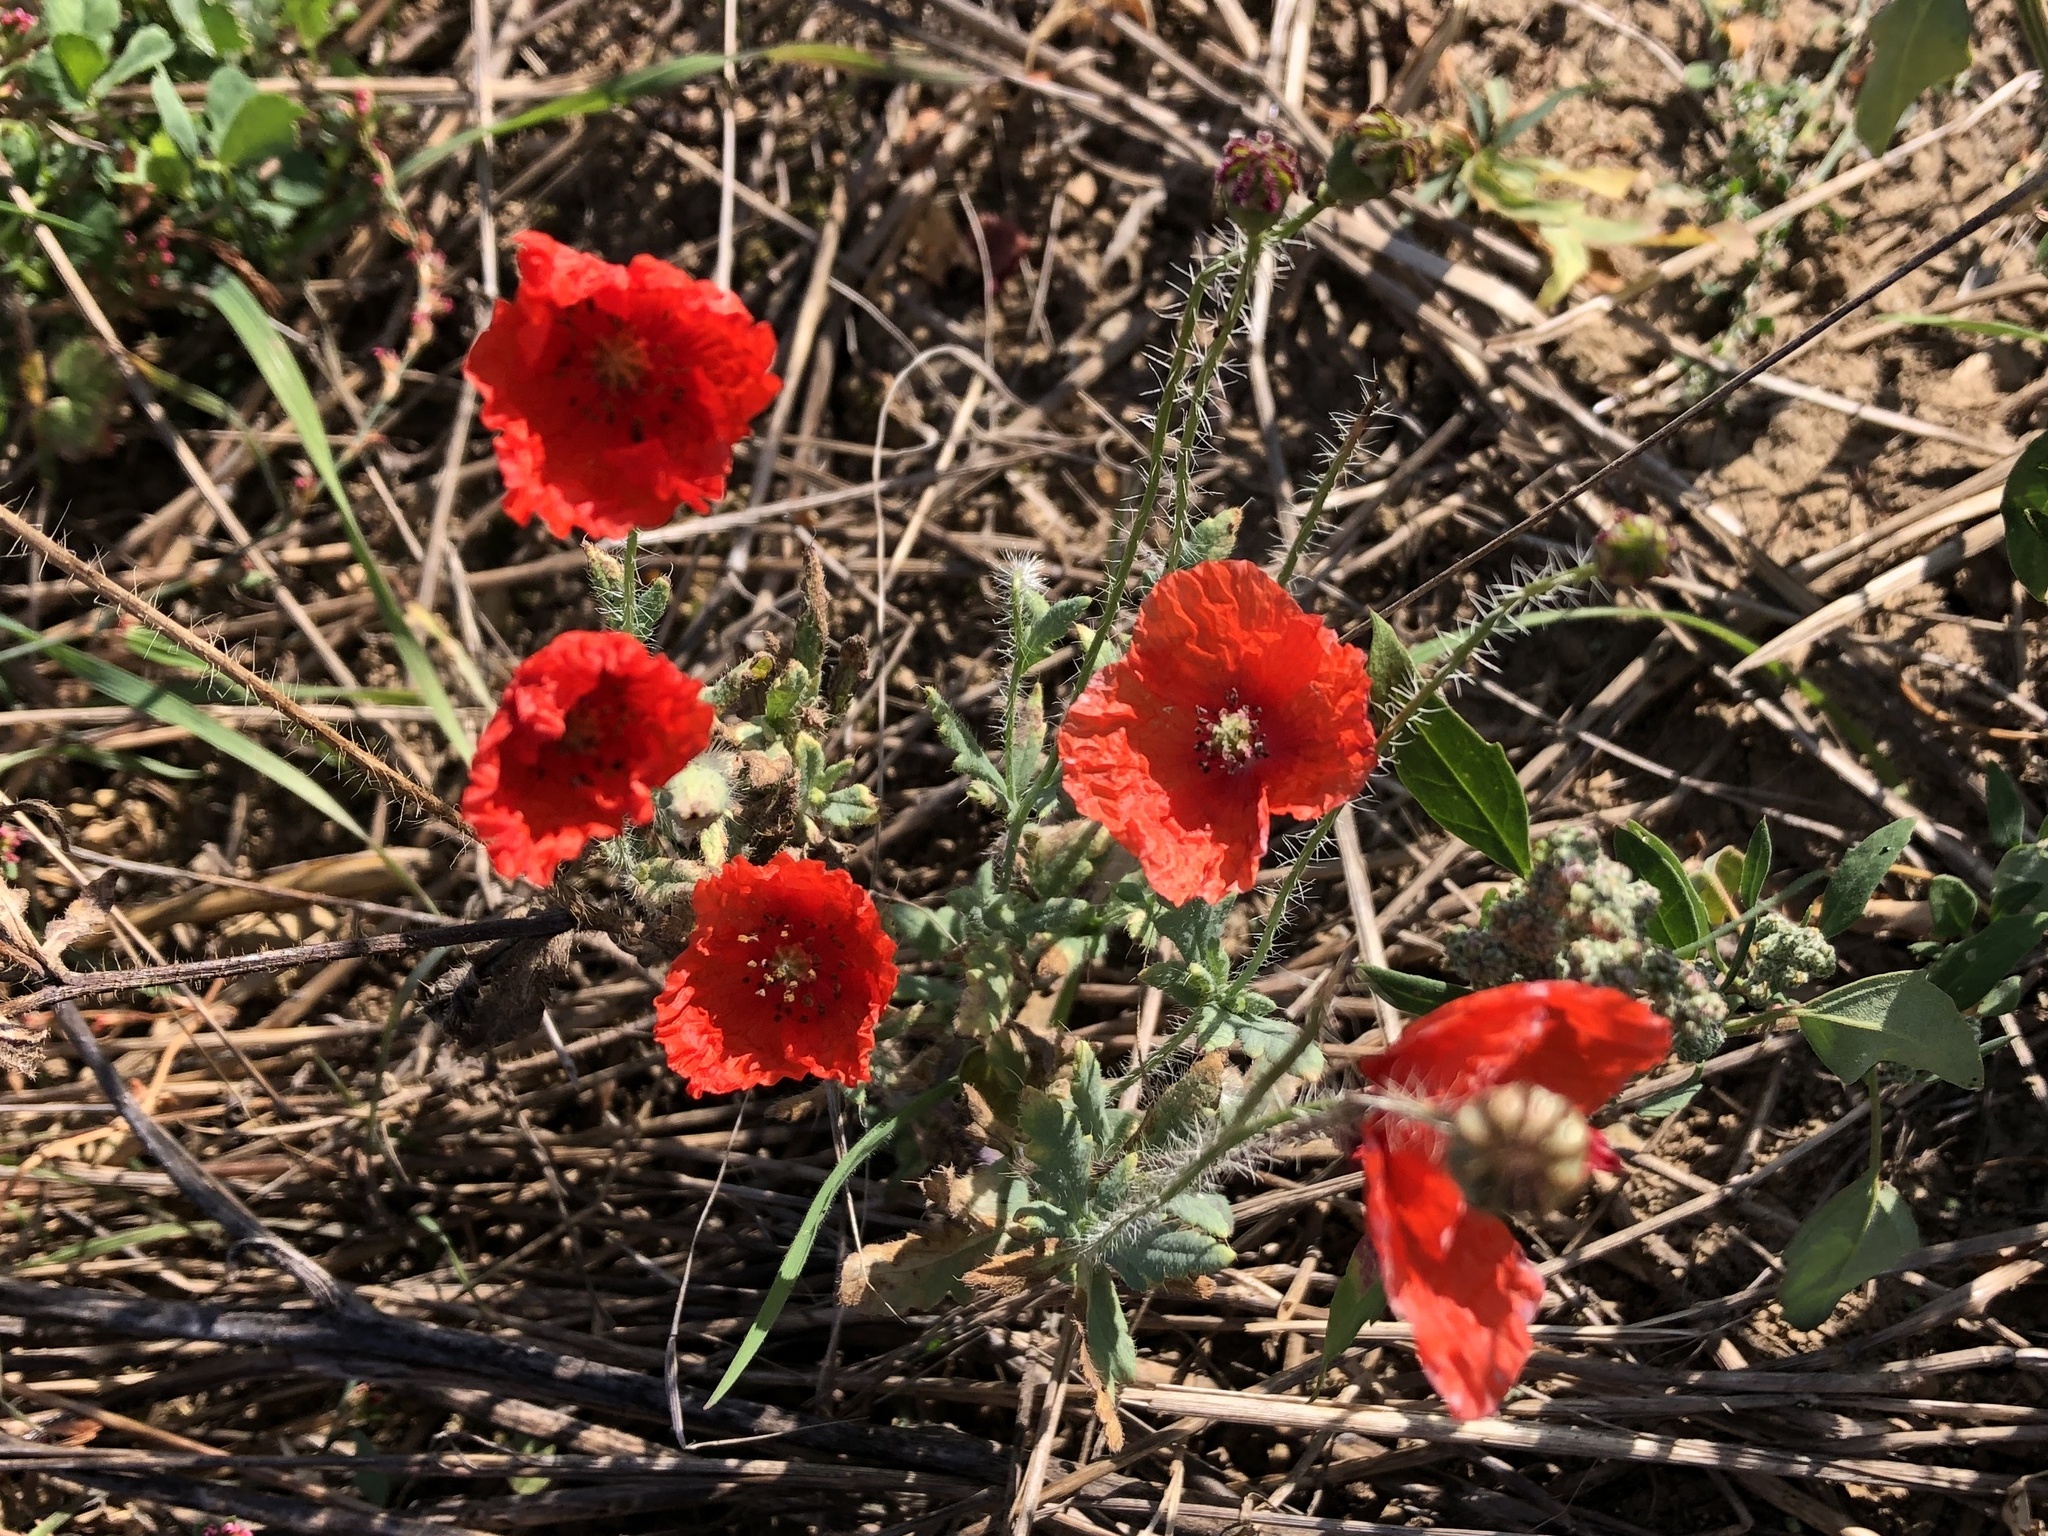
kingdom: Plantae
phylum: Tracheophyta
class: Magnoliopsida
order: Ranunculales
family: Papaveraceae
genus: Papaver
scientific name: Papaver rhoeas
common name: Corn poppy
